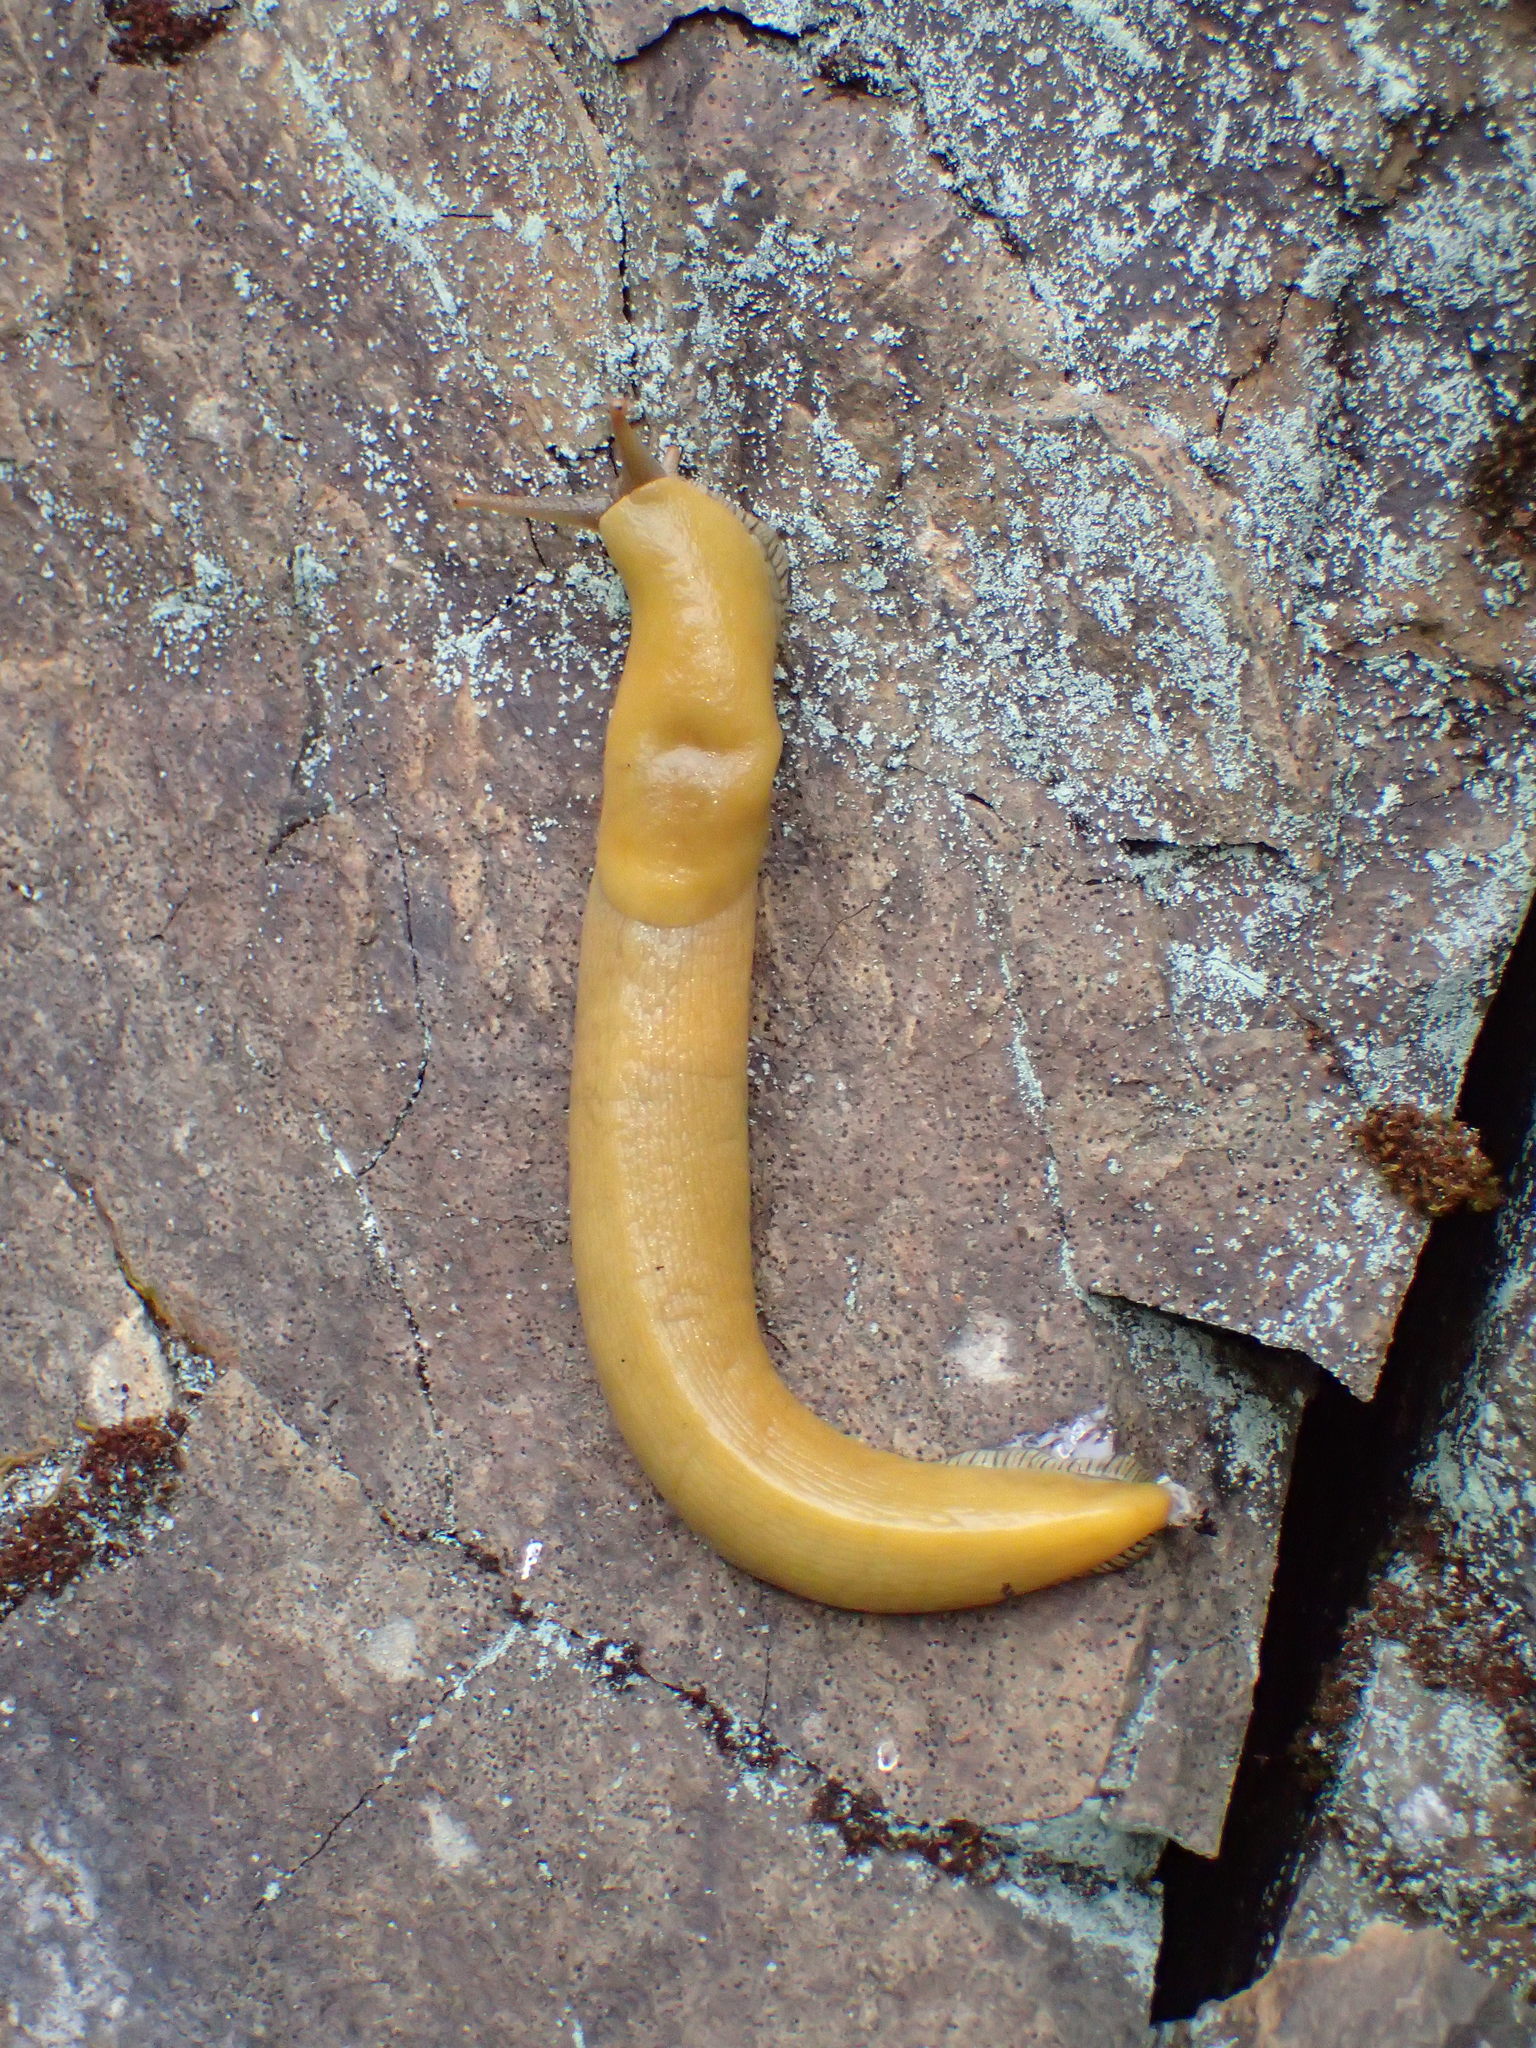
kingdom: Animalia
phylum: Mollusca
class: Gastropoda
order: Stylommatophora
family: Ariolimacidae
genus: Ariolimax
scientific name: Ariolimax stramineus
